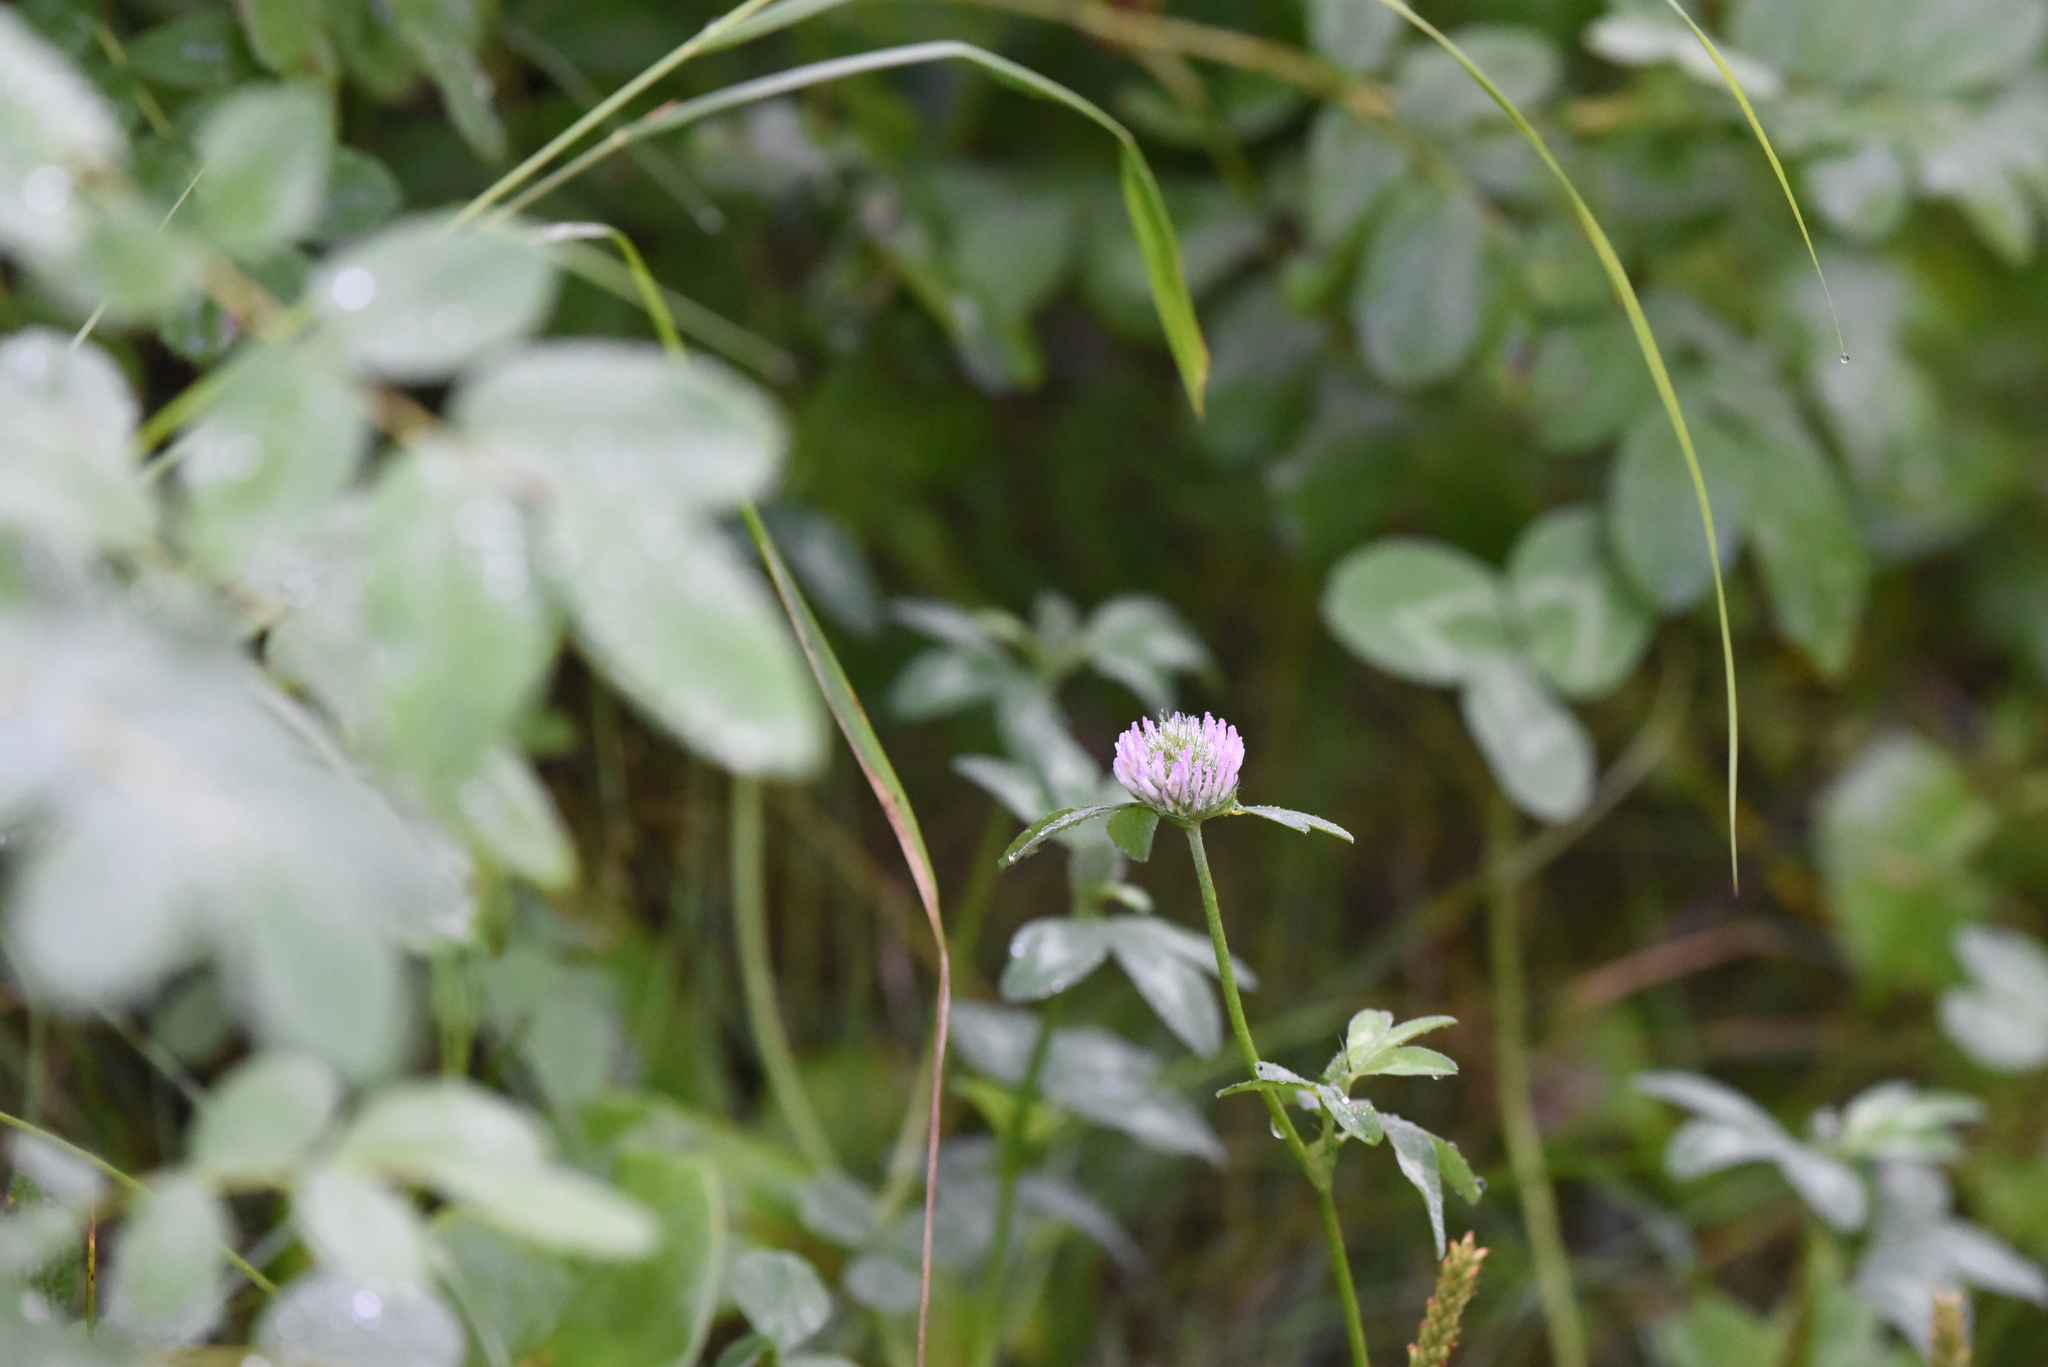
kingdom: Plantae
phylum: Tracheophyta
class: Magnoliopsida
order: Fabales
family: Fabaceae
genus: Trifolium
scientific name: Trifolium pratense
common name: Red clover
